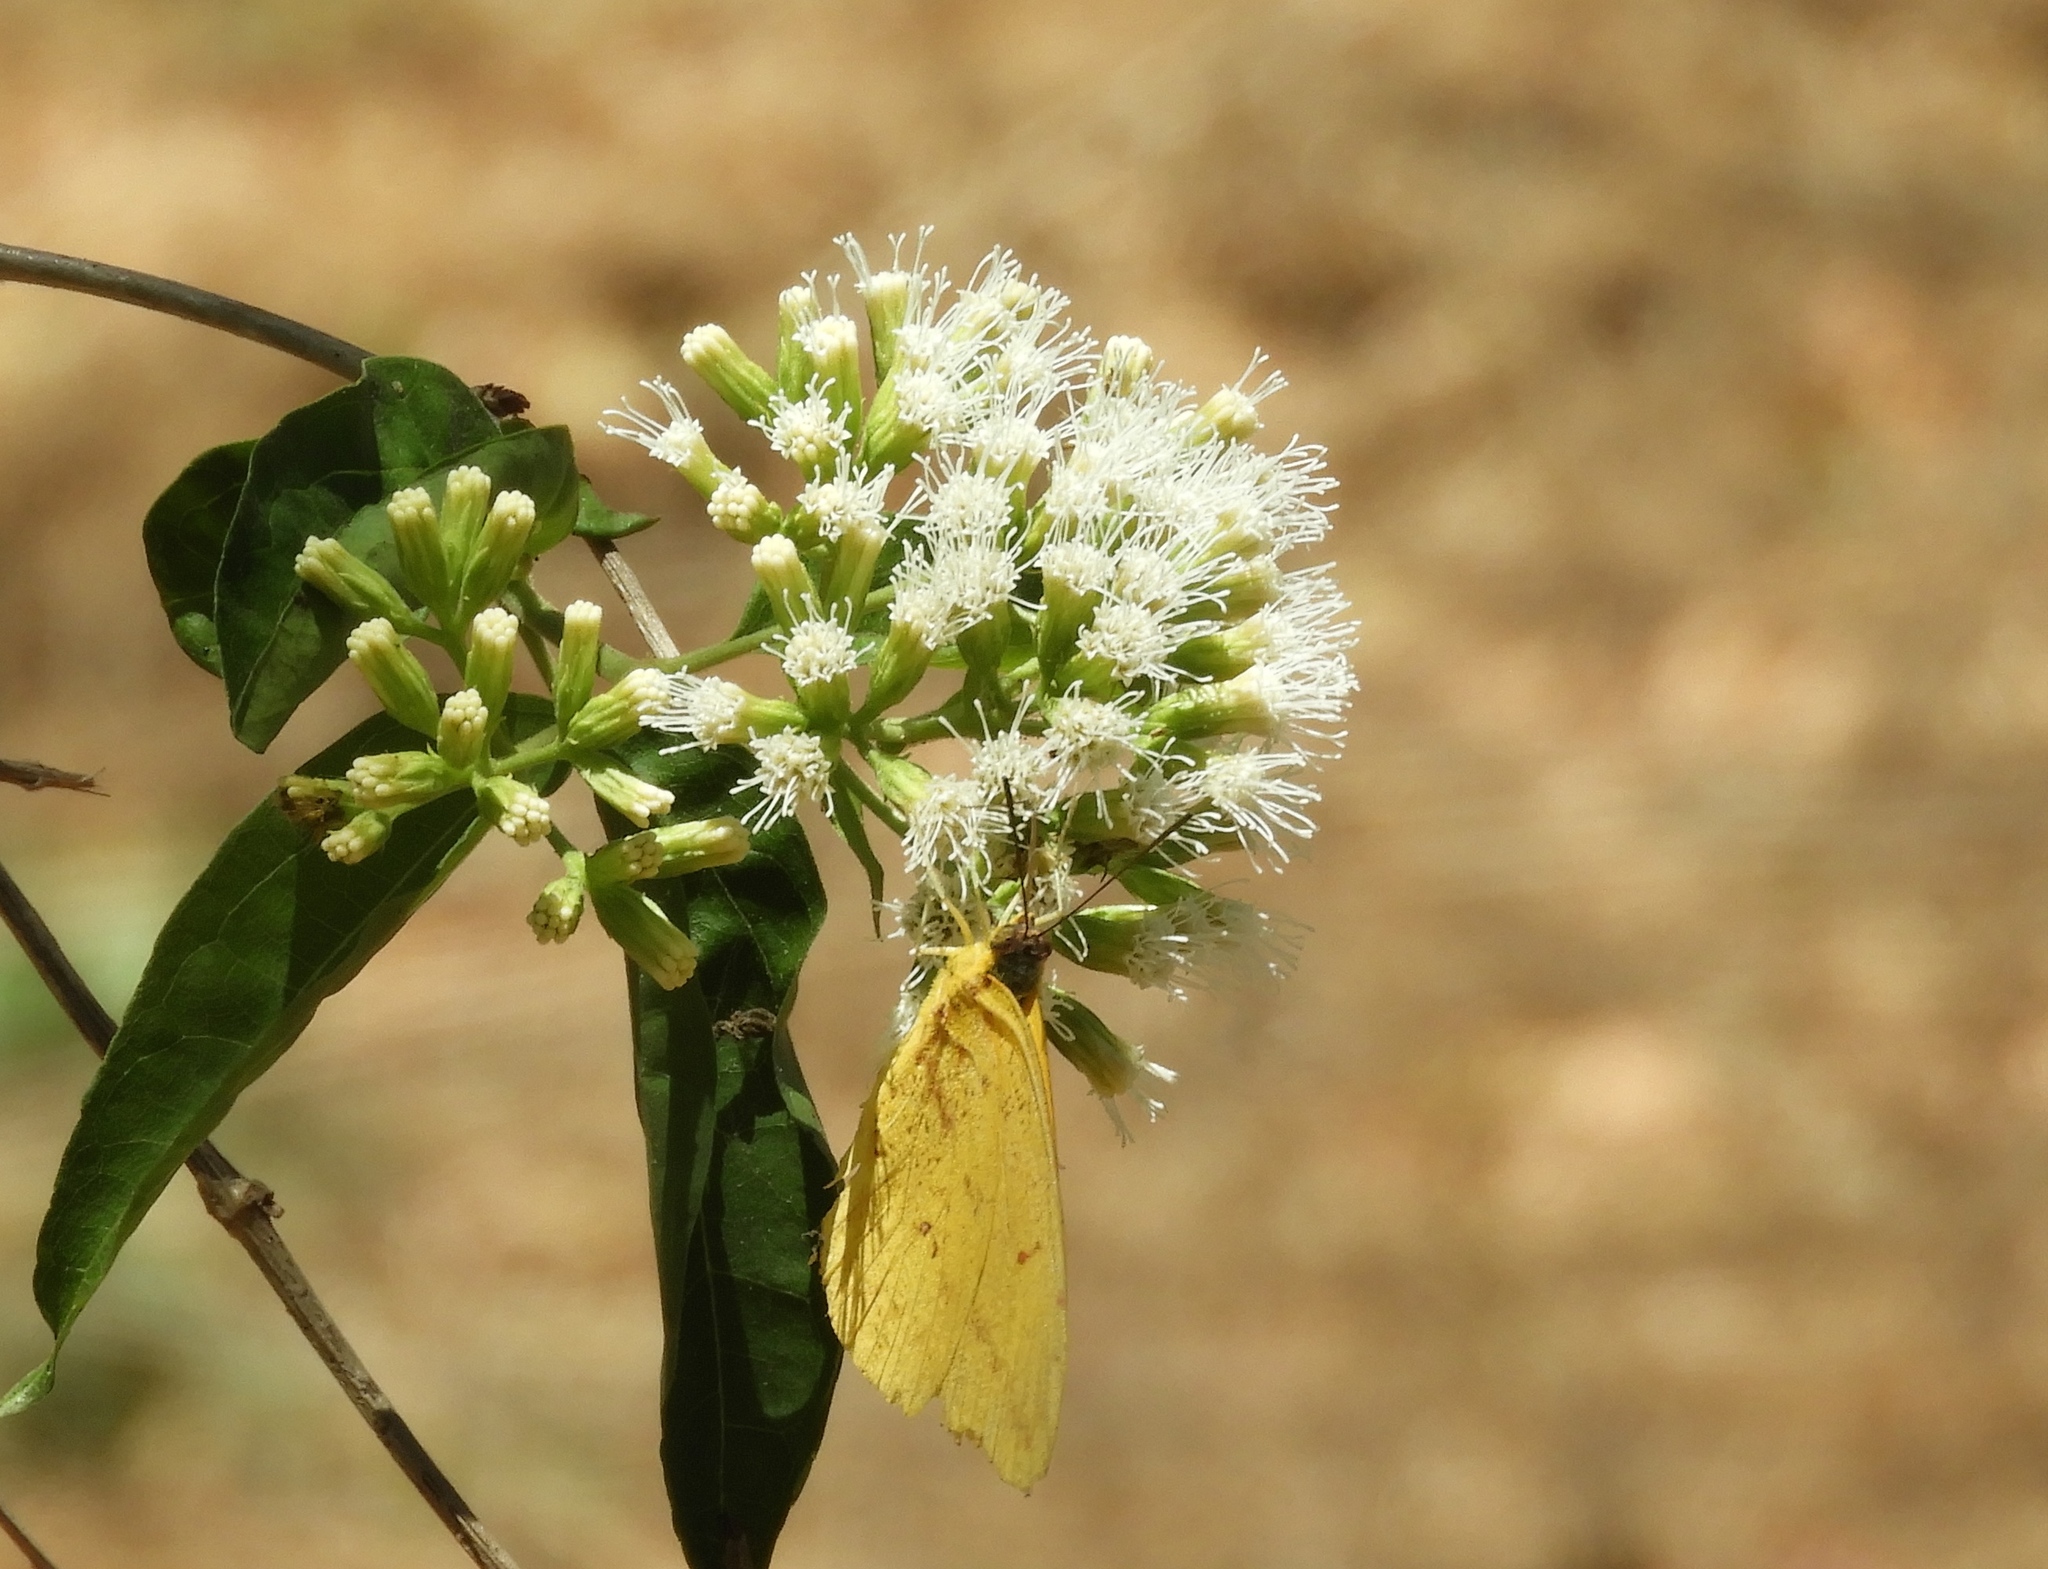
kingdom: Animalia
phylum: Arthropoda
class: Insecta
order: Lepidoptera
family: Pieridae
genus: Phoebis
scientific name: Phoebis agarithe
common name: Large orange sulphur
